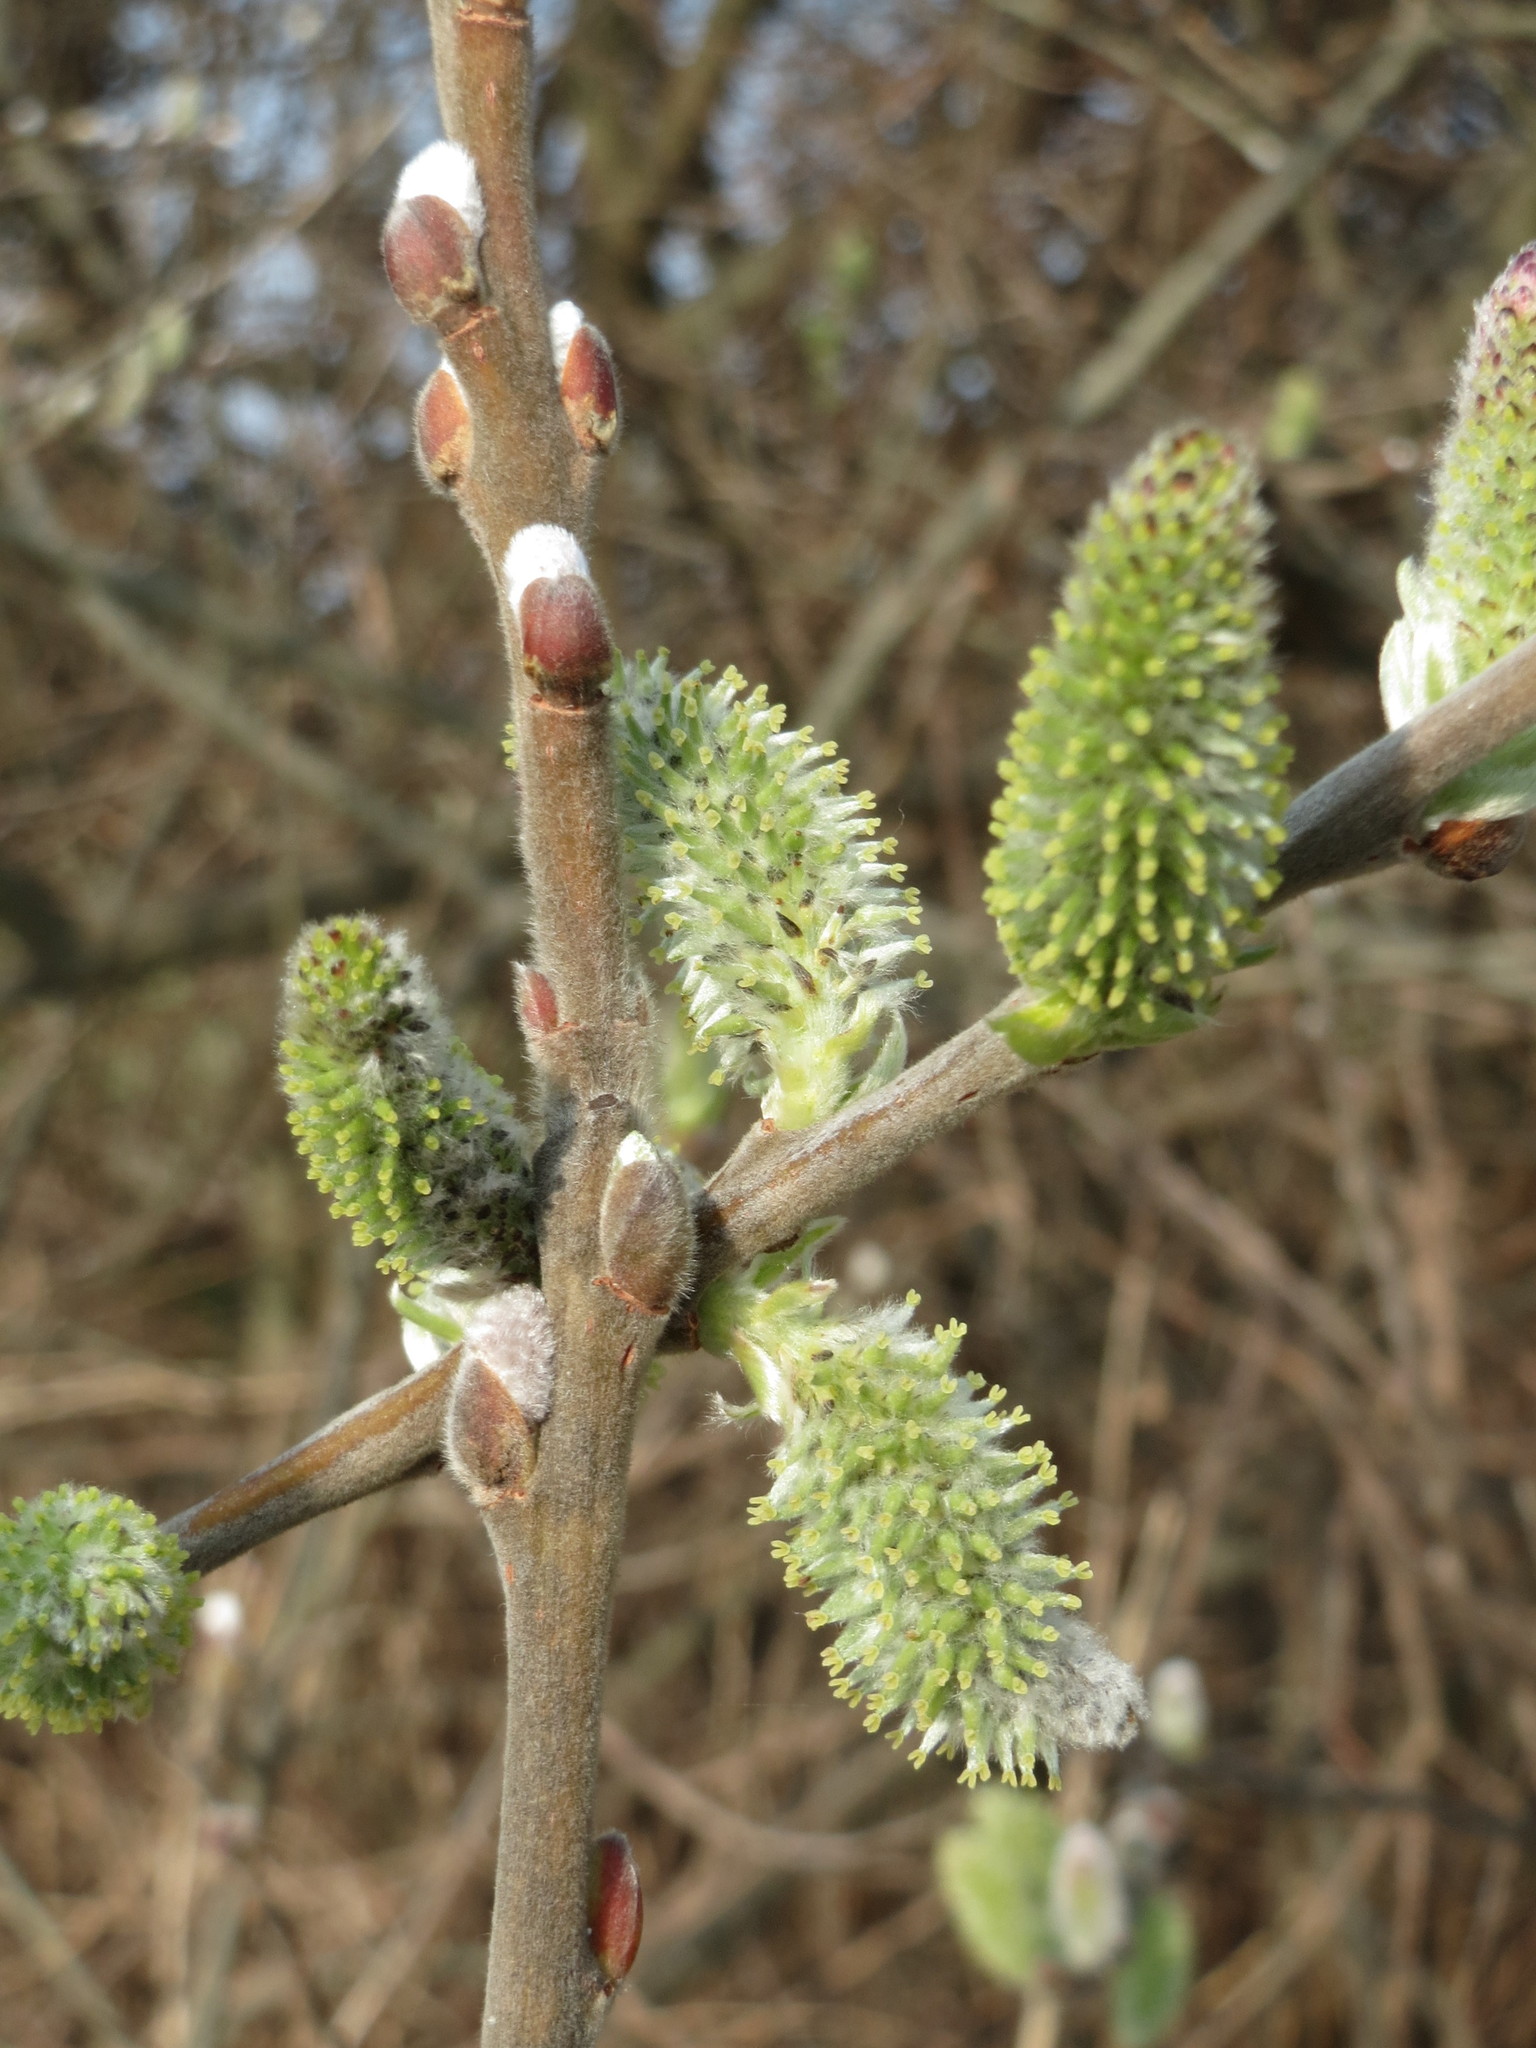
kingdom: Plantae
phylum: Tracheophyta
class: Magnoliopsida
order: Malpighiales
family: Salicaceae
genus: Salix
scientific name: Salix cinerea
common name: Common sallow
